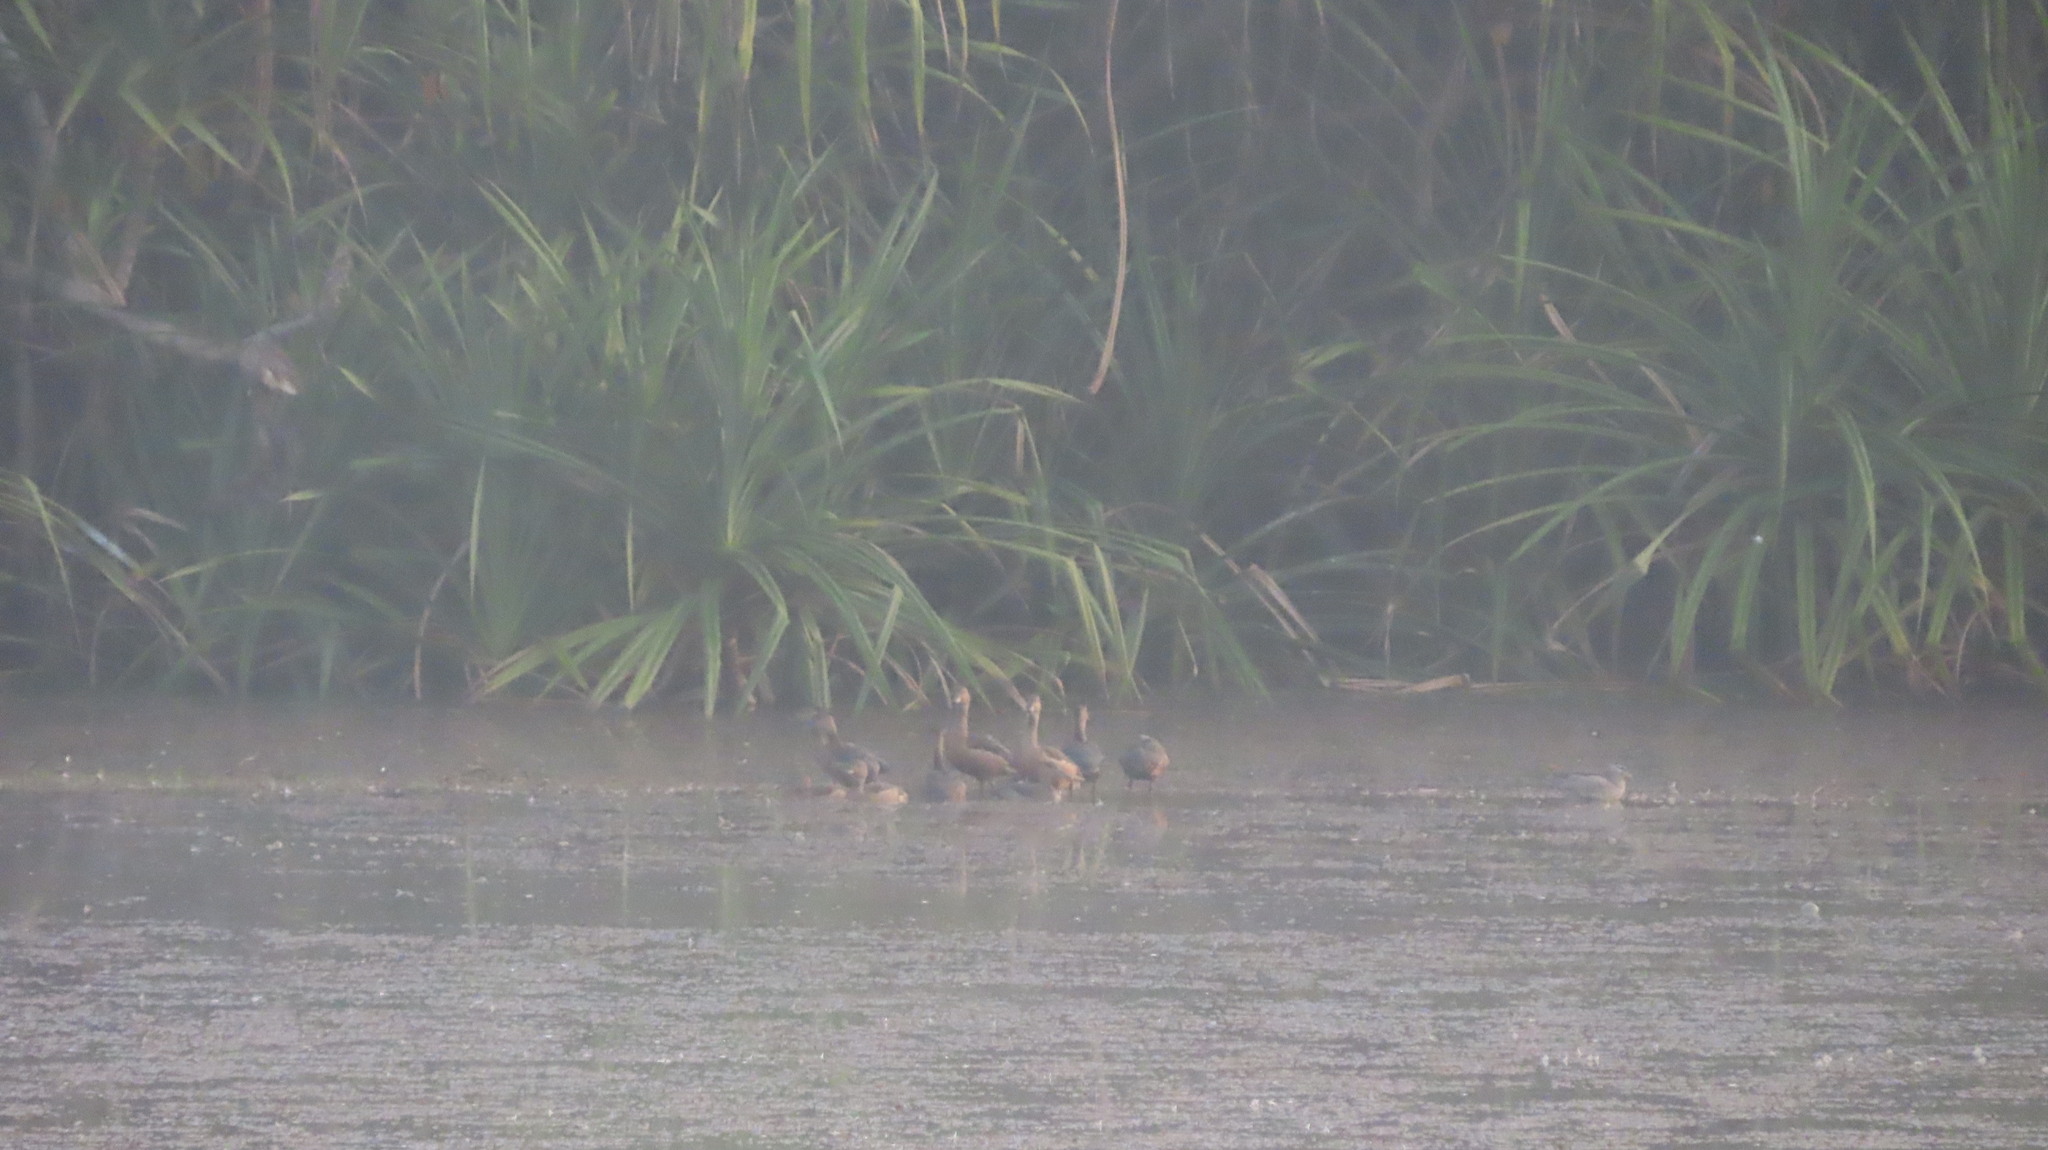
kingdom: Animalia
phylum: Chordata
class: Aves
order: Anseriformes
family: Anatidae
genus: Dendrocygna
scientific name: Dendrocygna javanica
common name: Lesser whistling-duck
